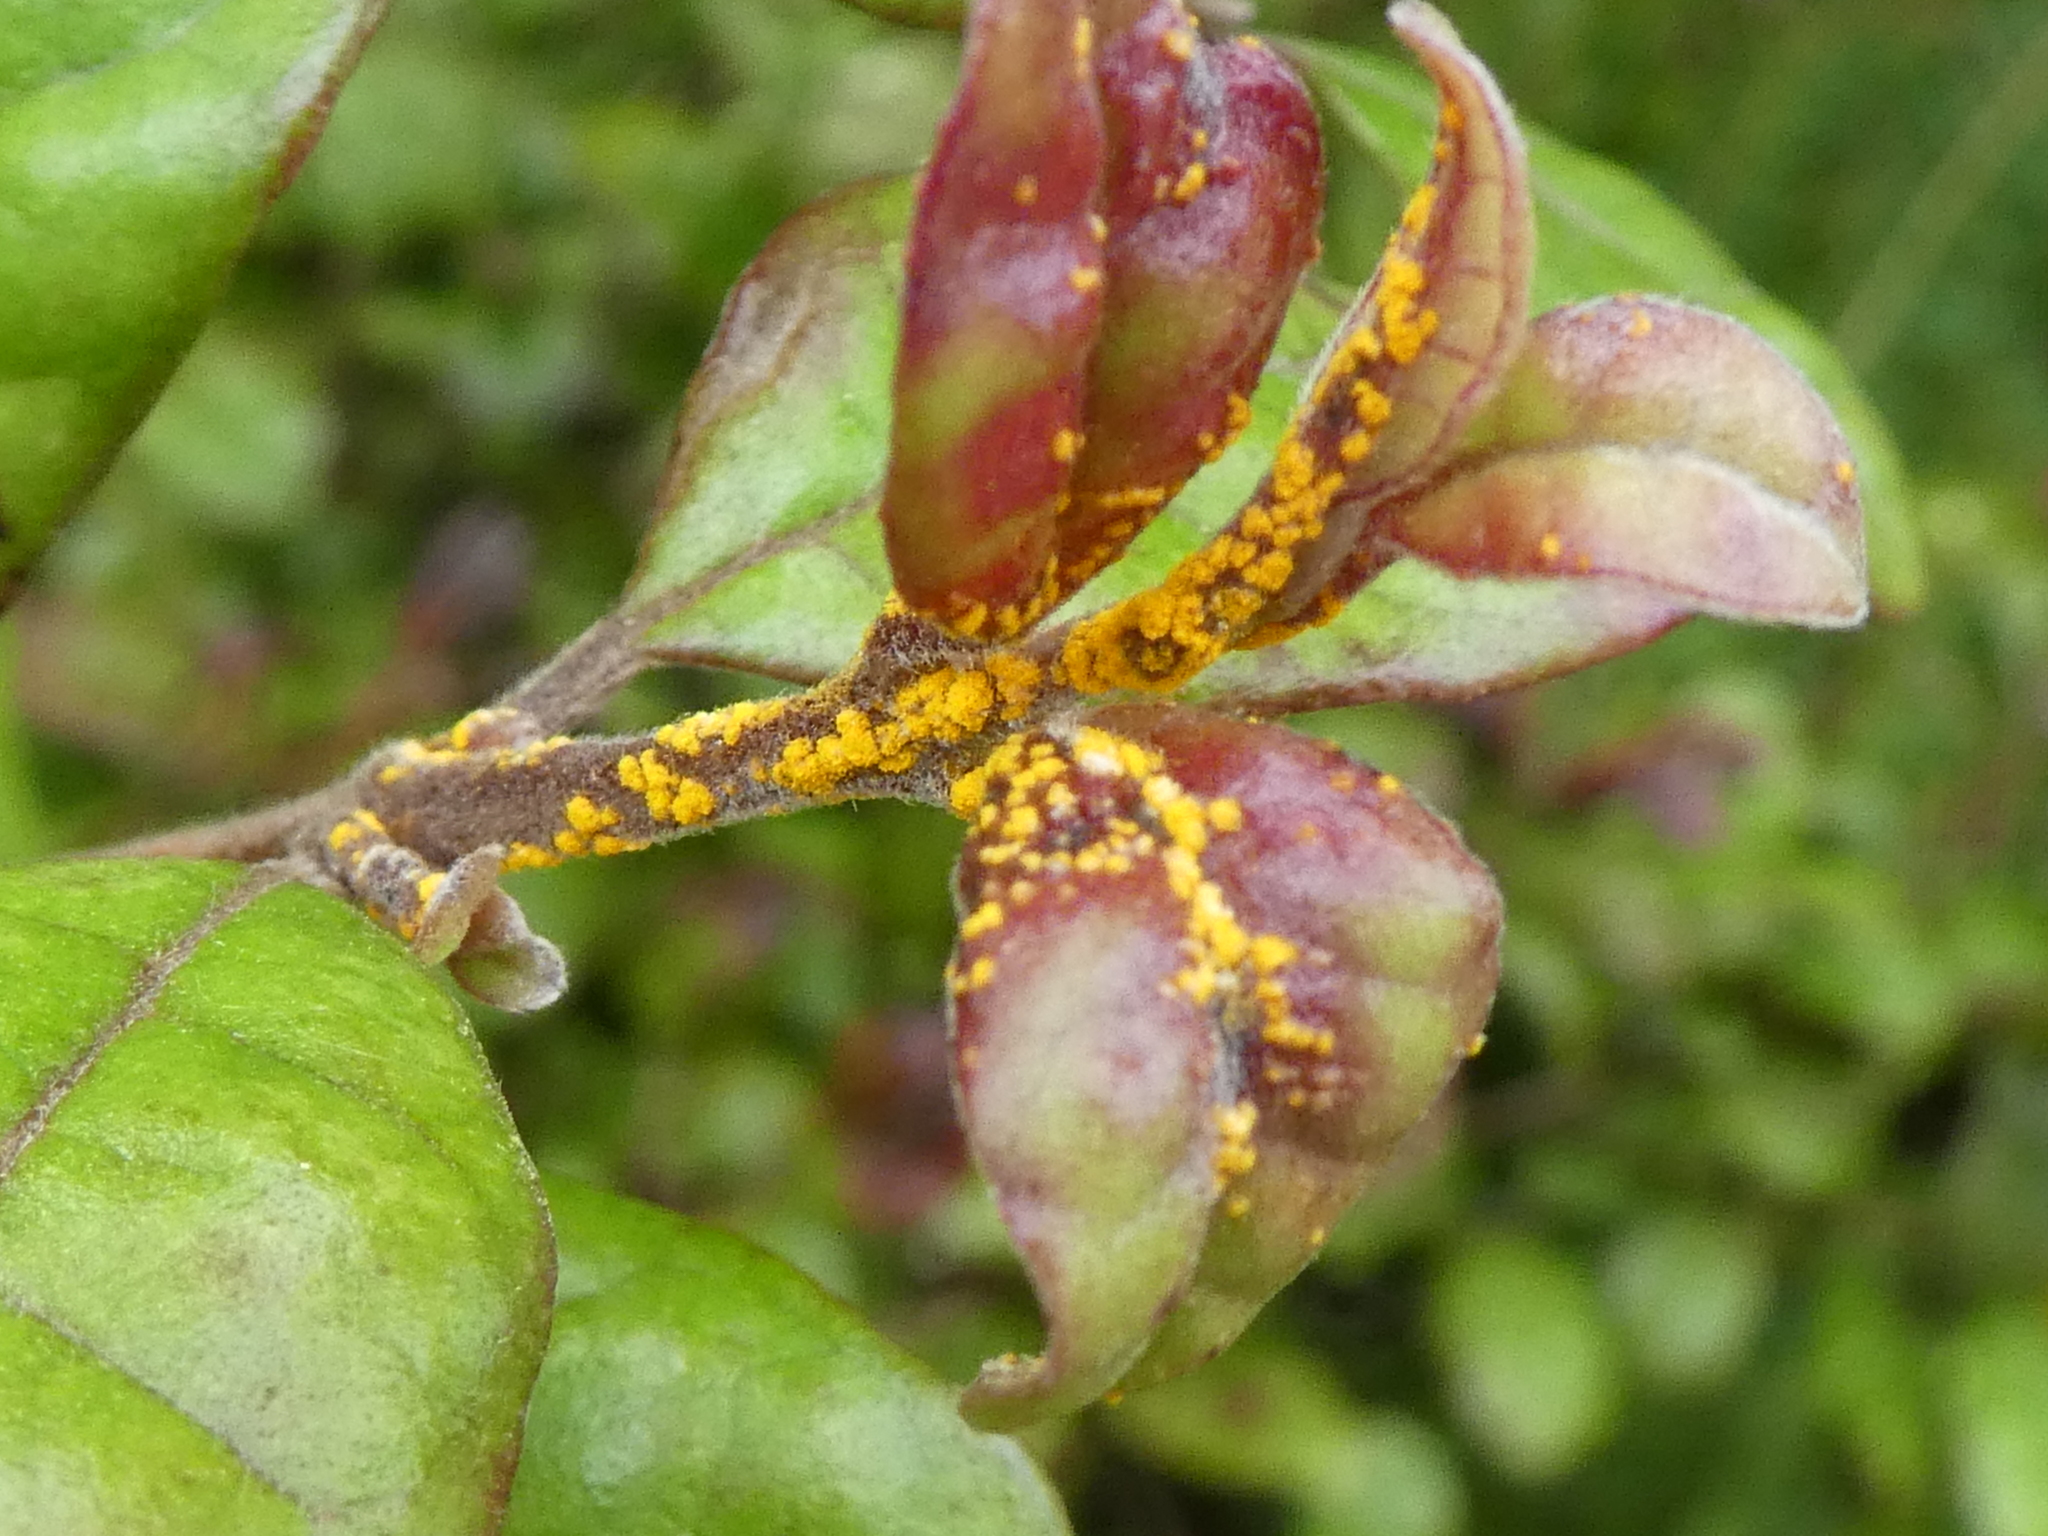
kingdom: Fungi
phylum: Basidiomycota
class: Pucciniomycetes
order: Pucciniales
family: Sphaerophragmiaceae
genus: Austropuccinia
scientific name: Austropuccinia psidii
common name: Myrtle rust
